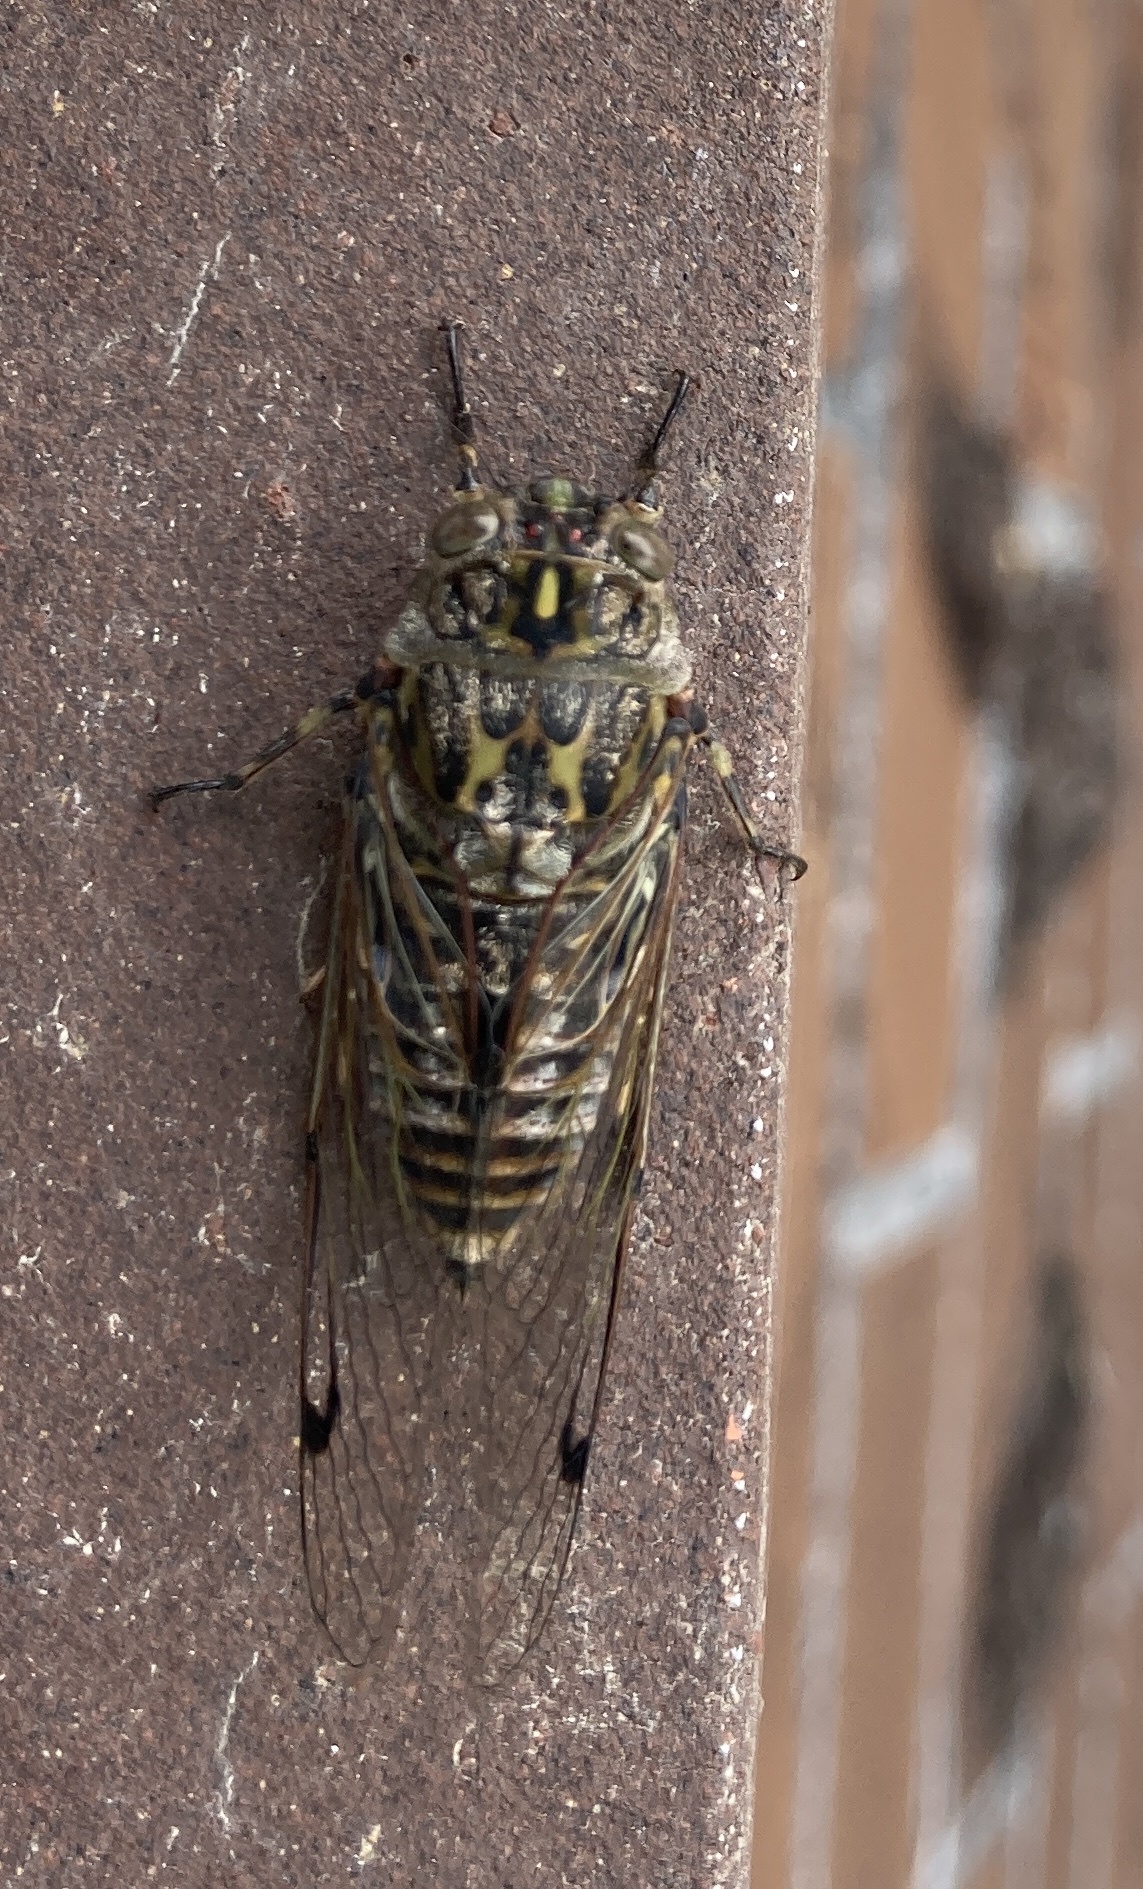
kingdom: Animalia
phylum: Arthropoda
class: Insecta
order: Hemiptera
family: Cicadidae
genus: Amphipsalta
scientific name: Amphipsalta cingulata
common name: Clapping cicada
